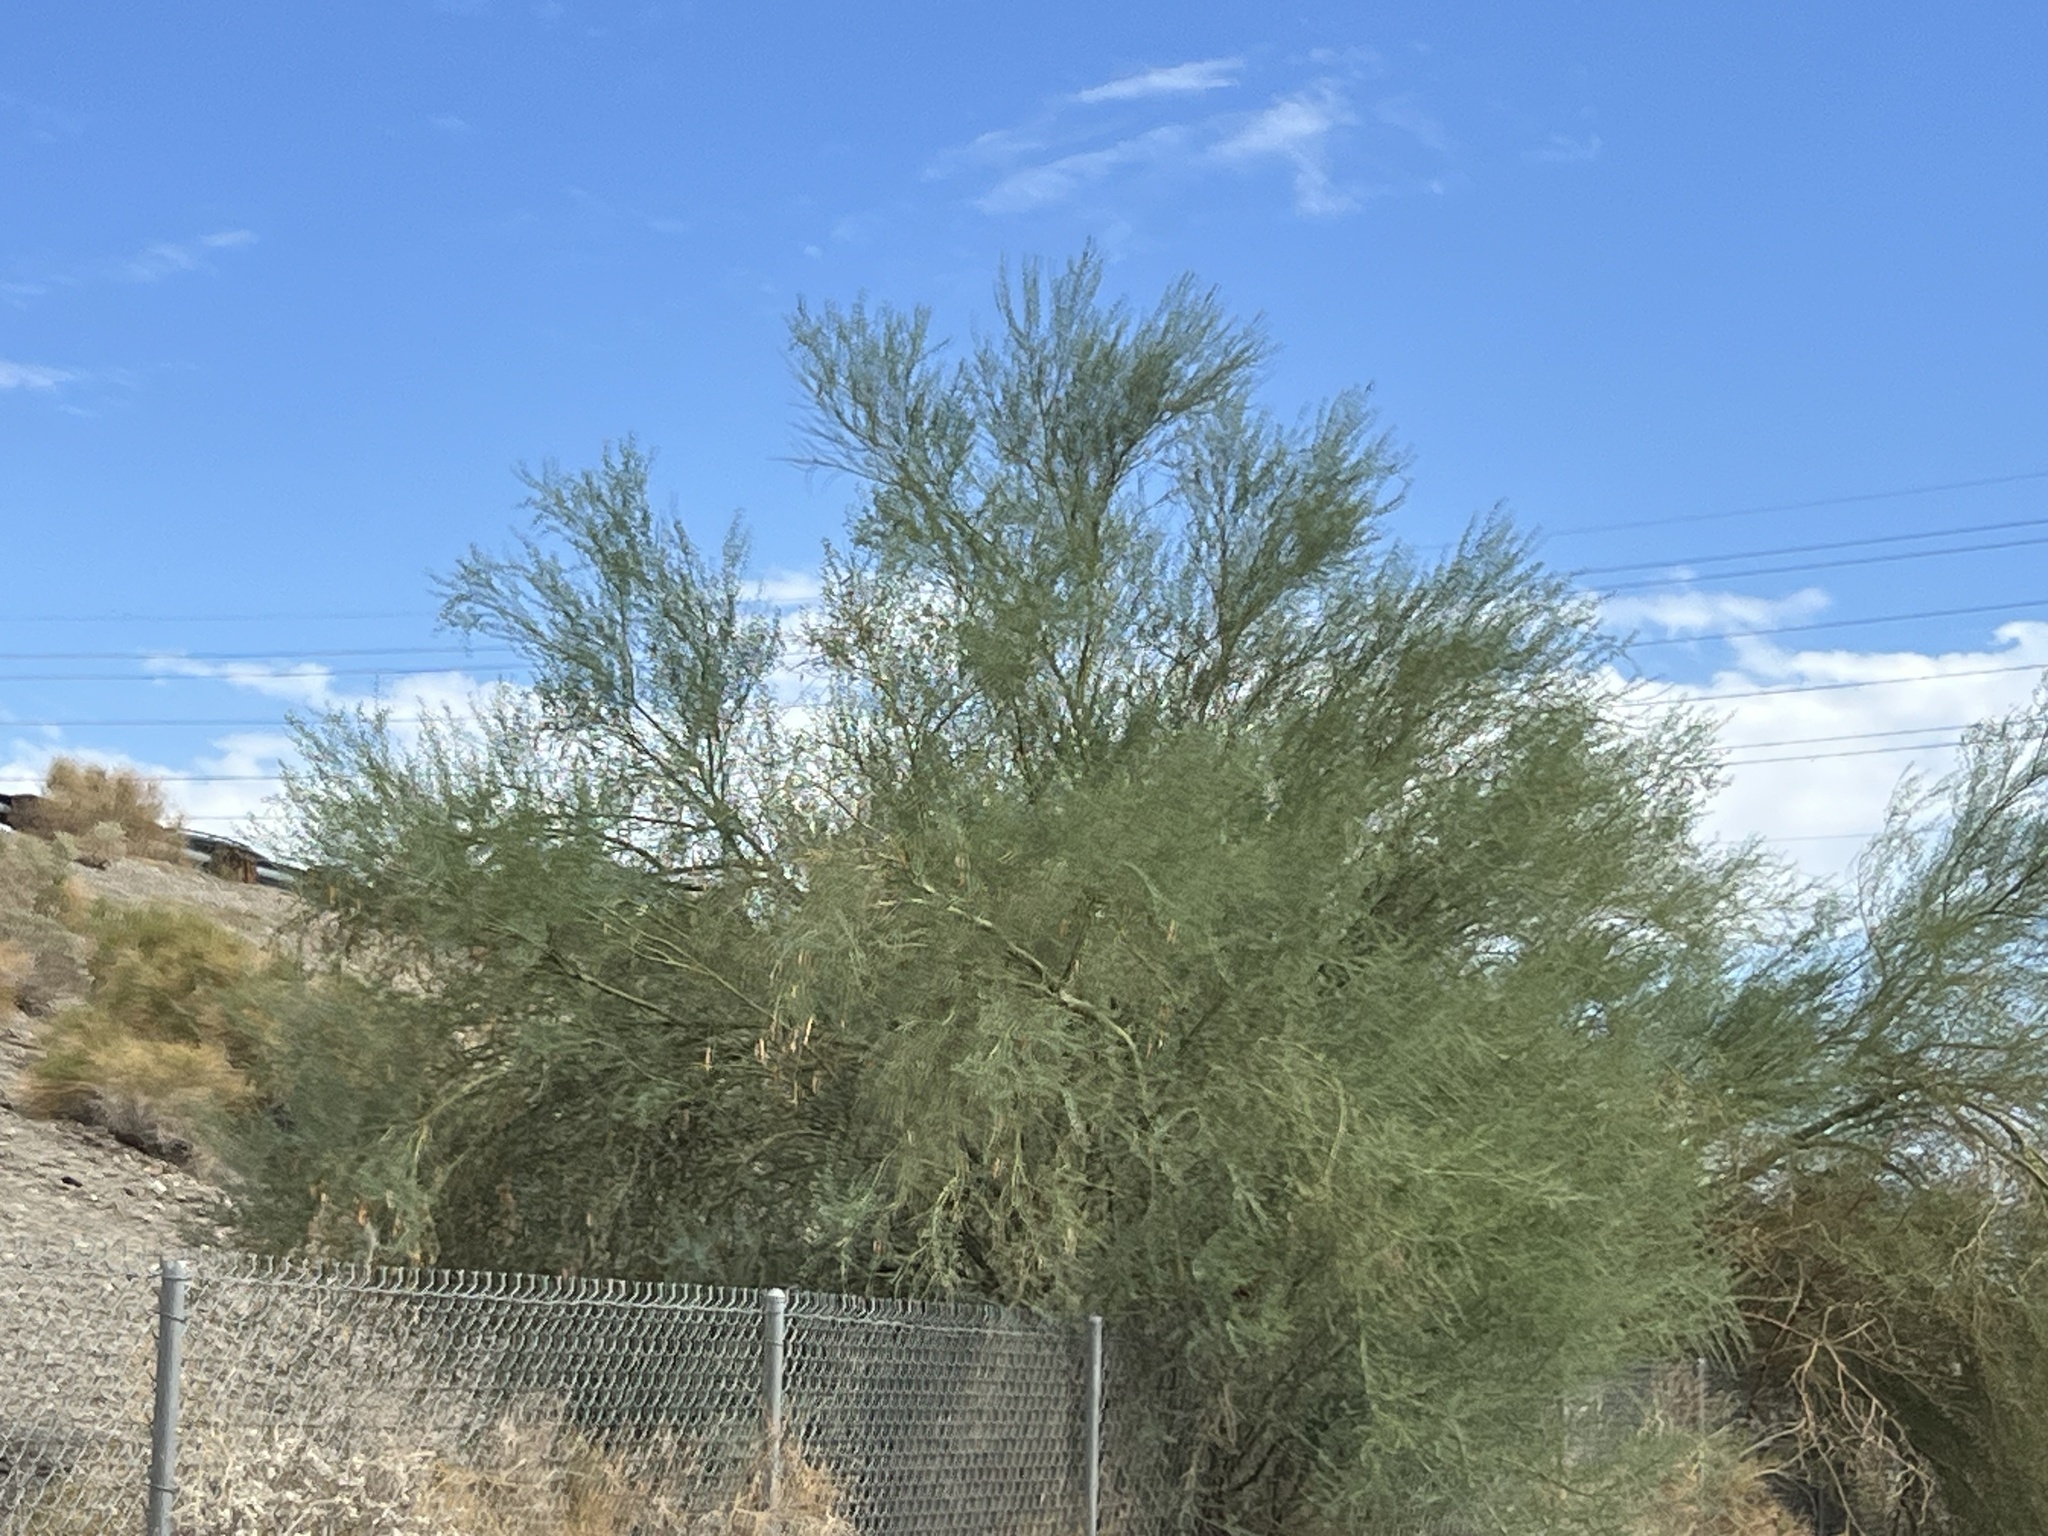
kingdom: Plantae
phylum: Tracheophyta
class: Magnoliopsida
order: Fabales
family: Fabaceae
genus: Parkinsonia
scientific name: Parkinsonia florida
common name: Blue paloverde
